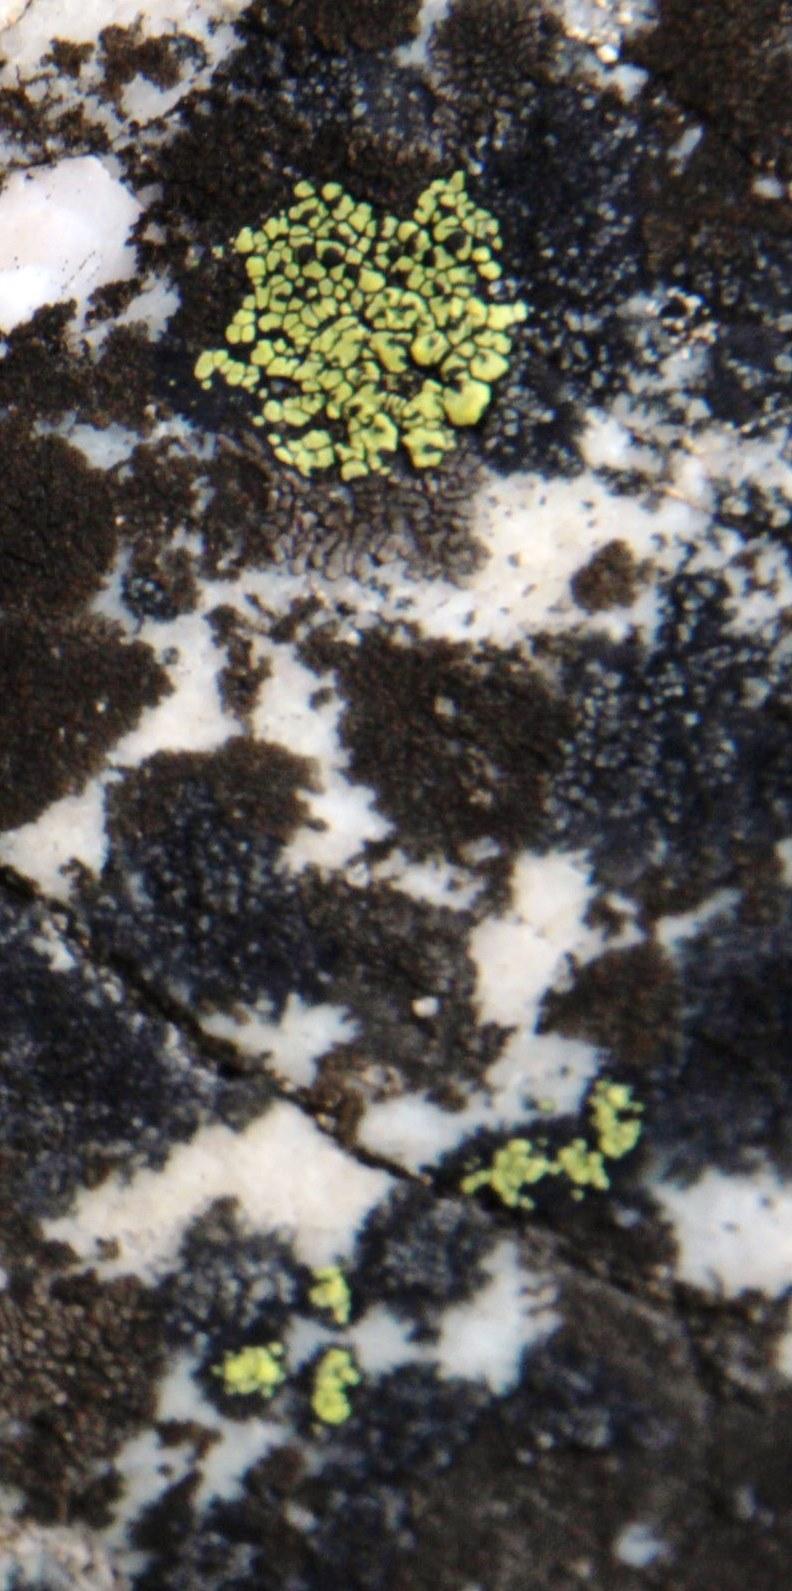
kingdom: Fungi
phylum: Ascomycota
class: Lecanoromycetes
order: Rhizocarpales
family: Rhizocarpaceae
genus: Rhizocarpon
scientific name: Rhizocarpon lecanorinum
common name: Crescent map lichen
